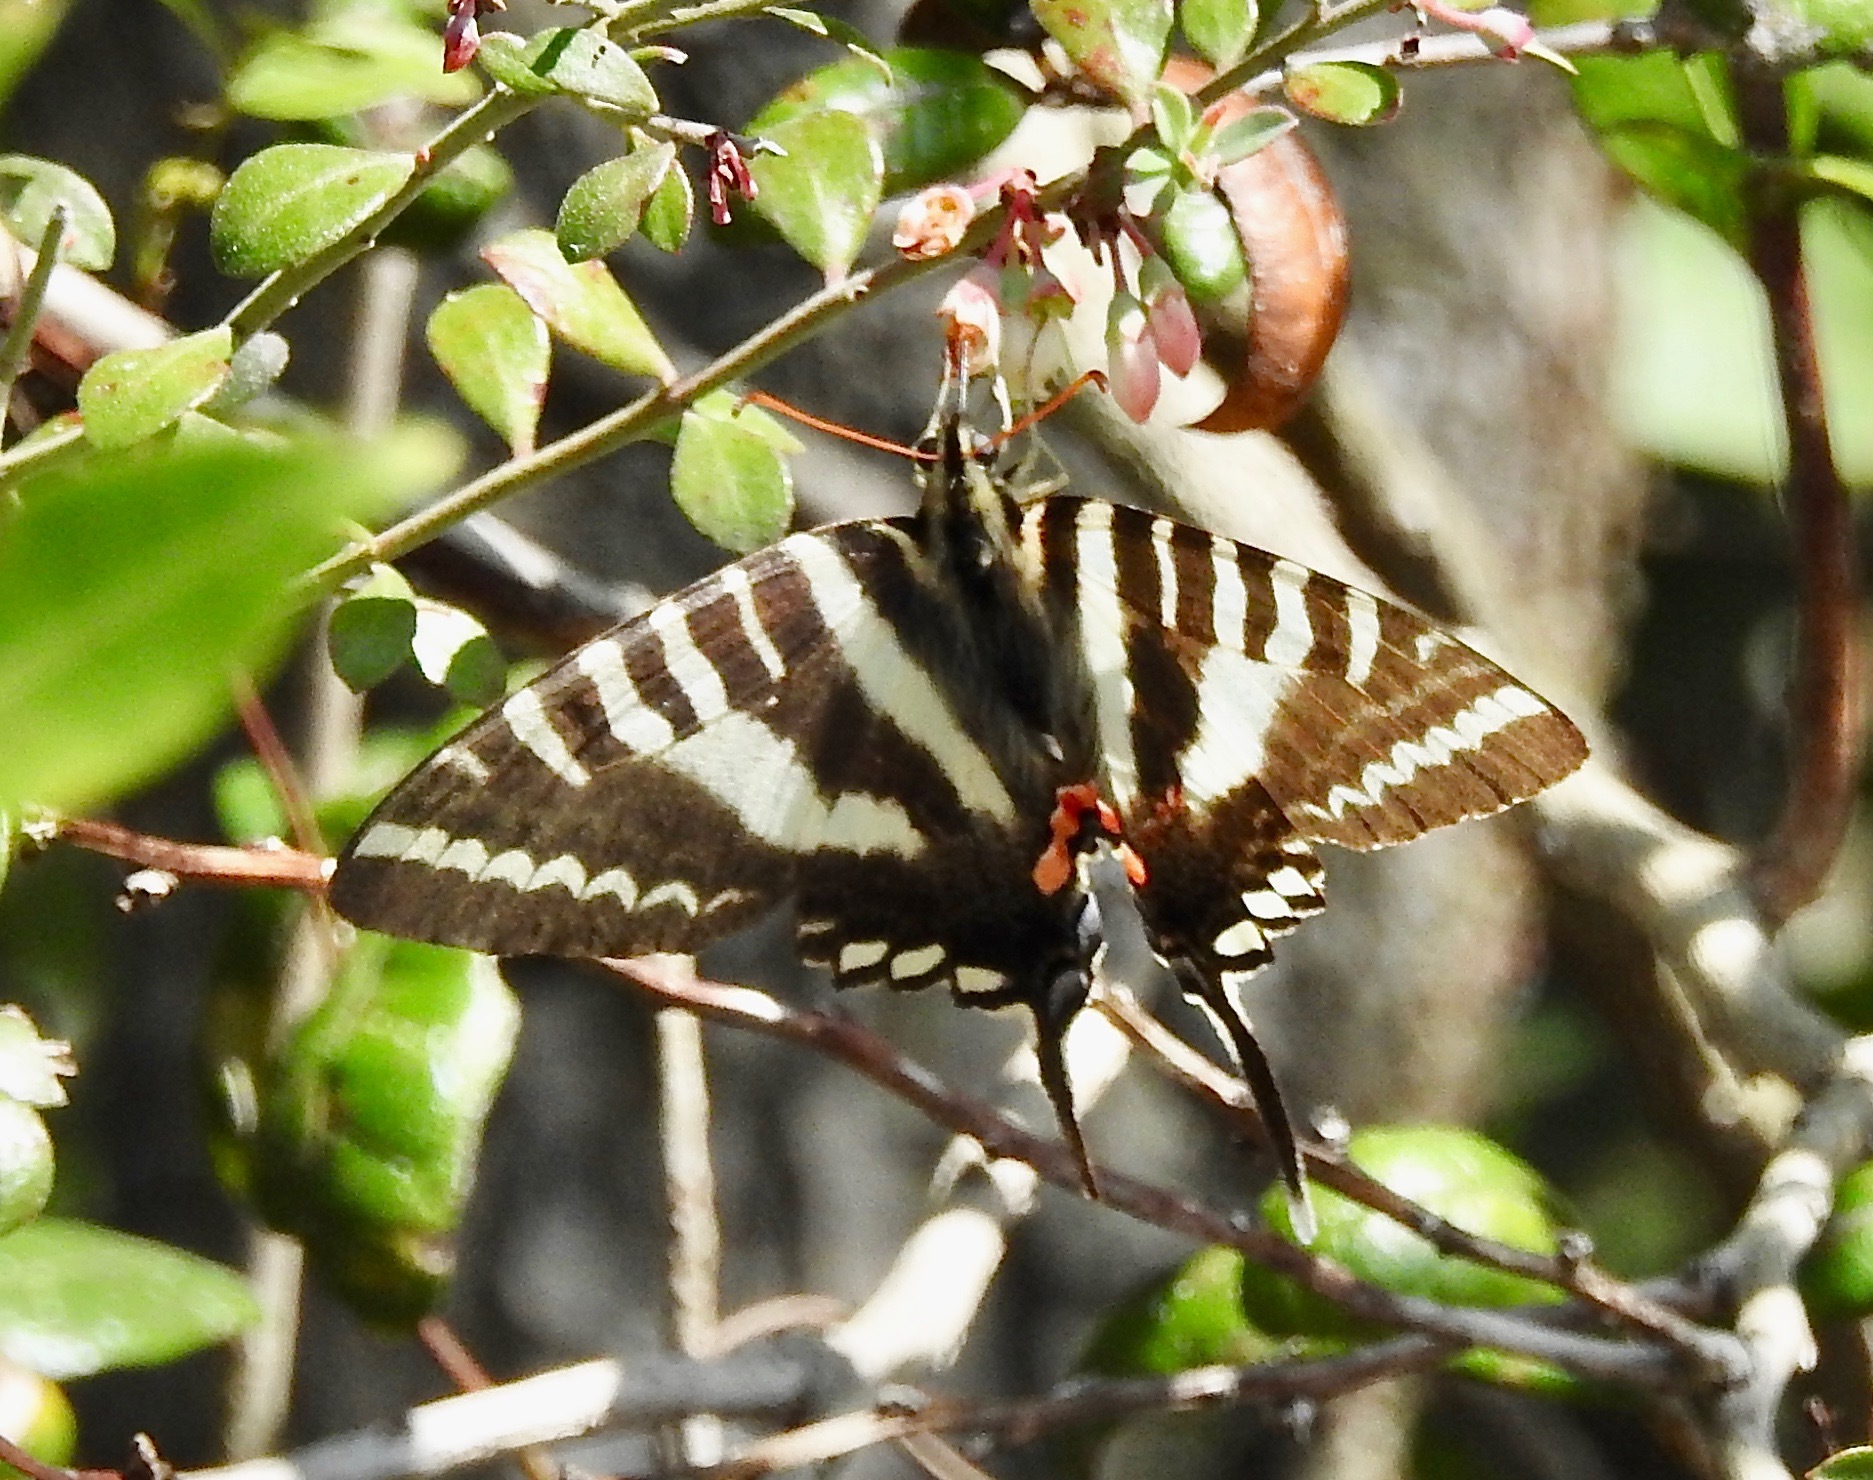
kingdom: Animalia
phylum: Arthropoda
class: Insecta
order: Lepidoptera
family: Papilionidae
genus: Protographium
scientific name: Protographium marcellus
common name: Zebra swallowtail
